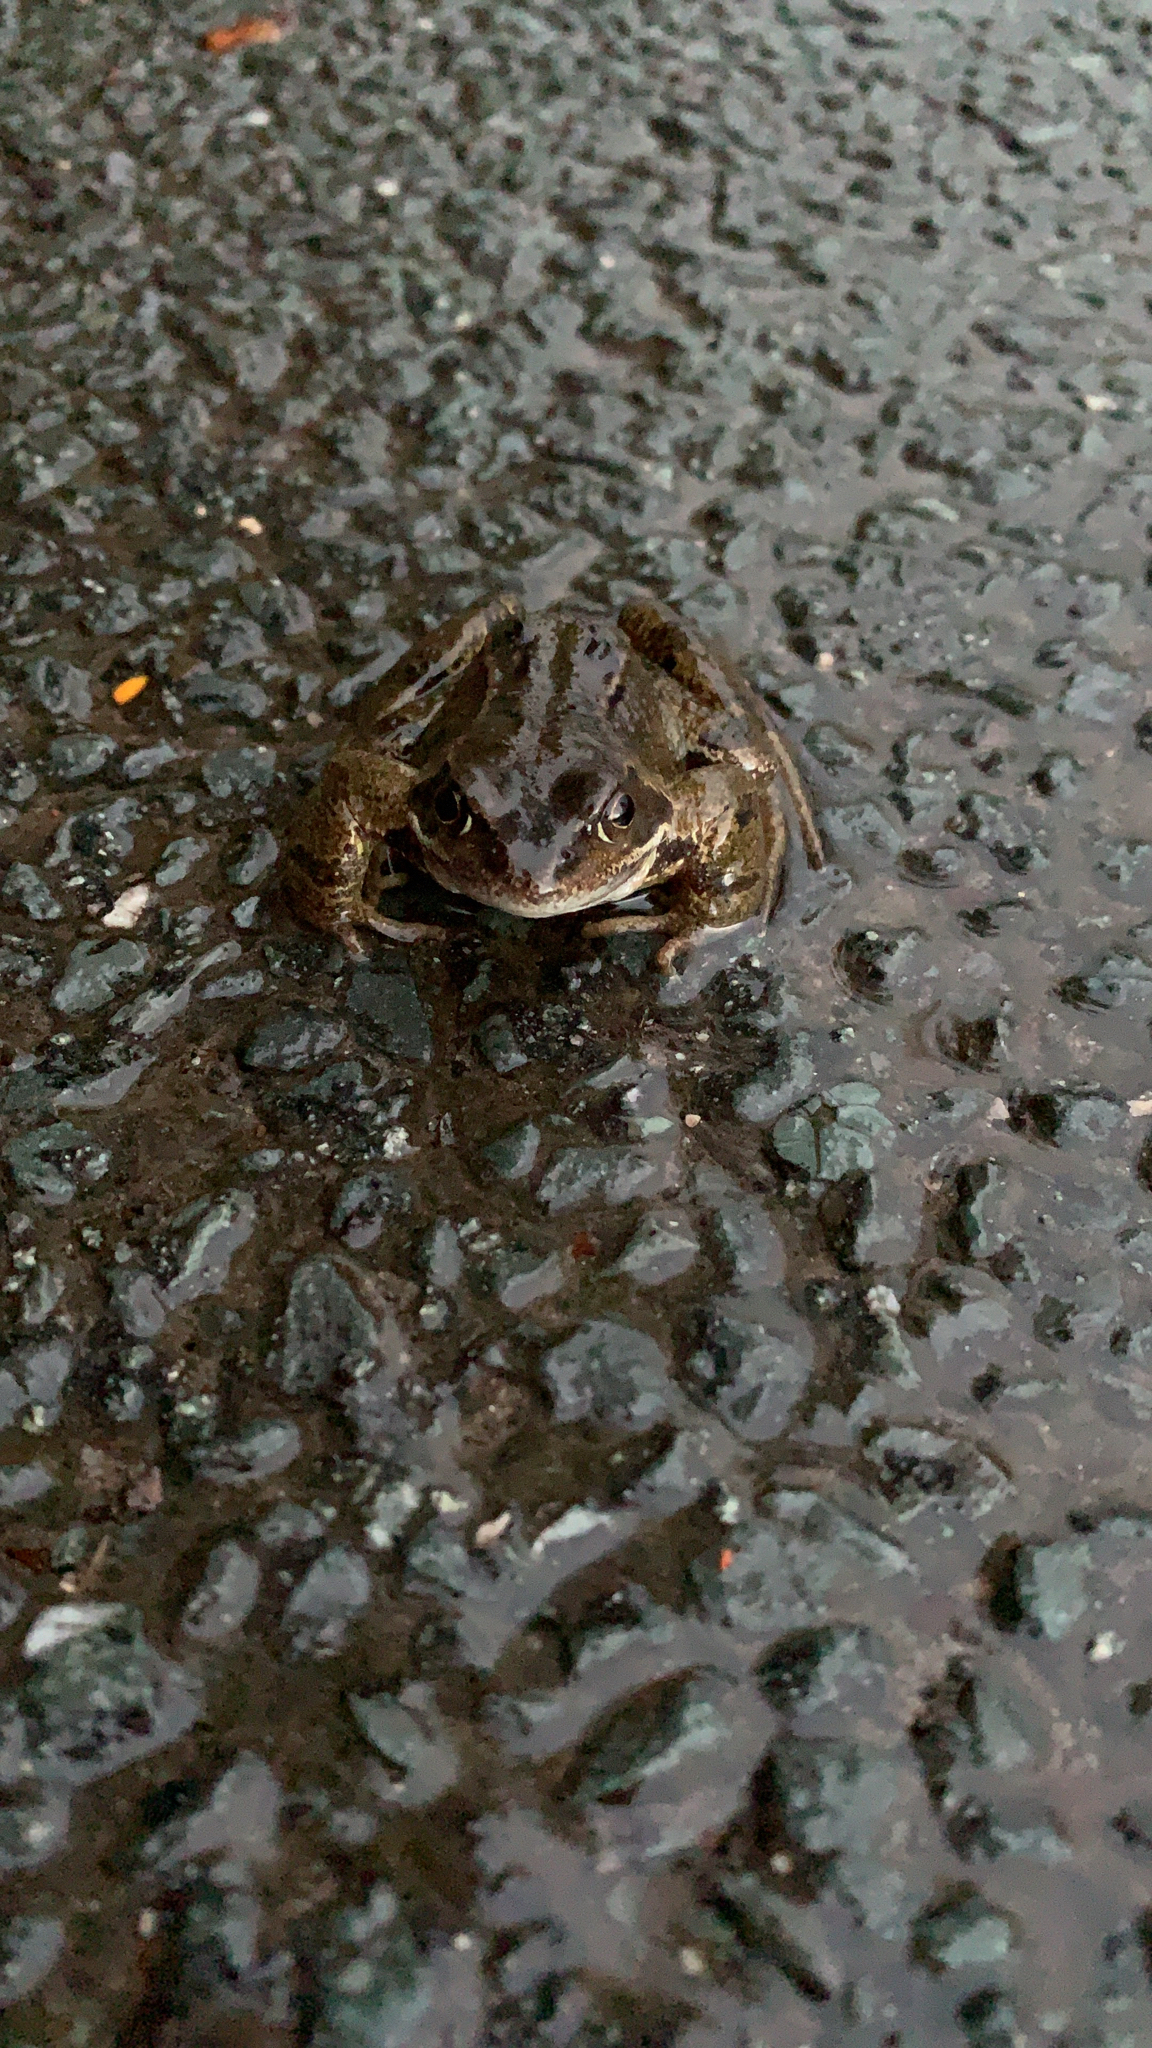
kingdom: Animalia
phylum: Chordata
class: Amphibia
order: Anura
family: Ranidae
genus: Rana
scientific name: Rana temporaria
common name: Common frog
